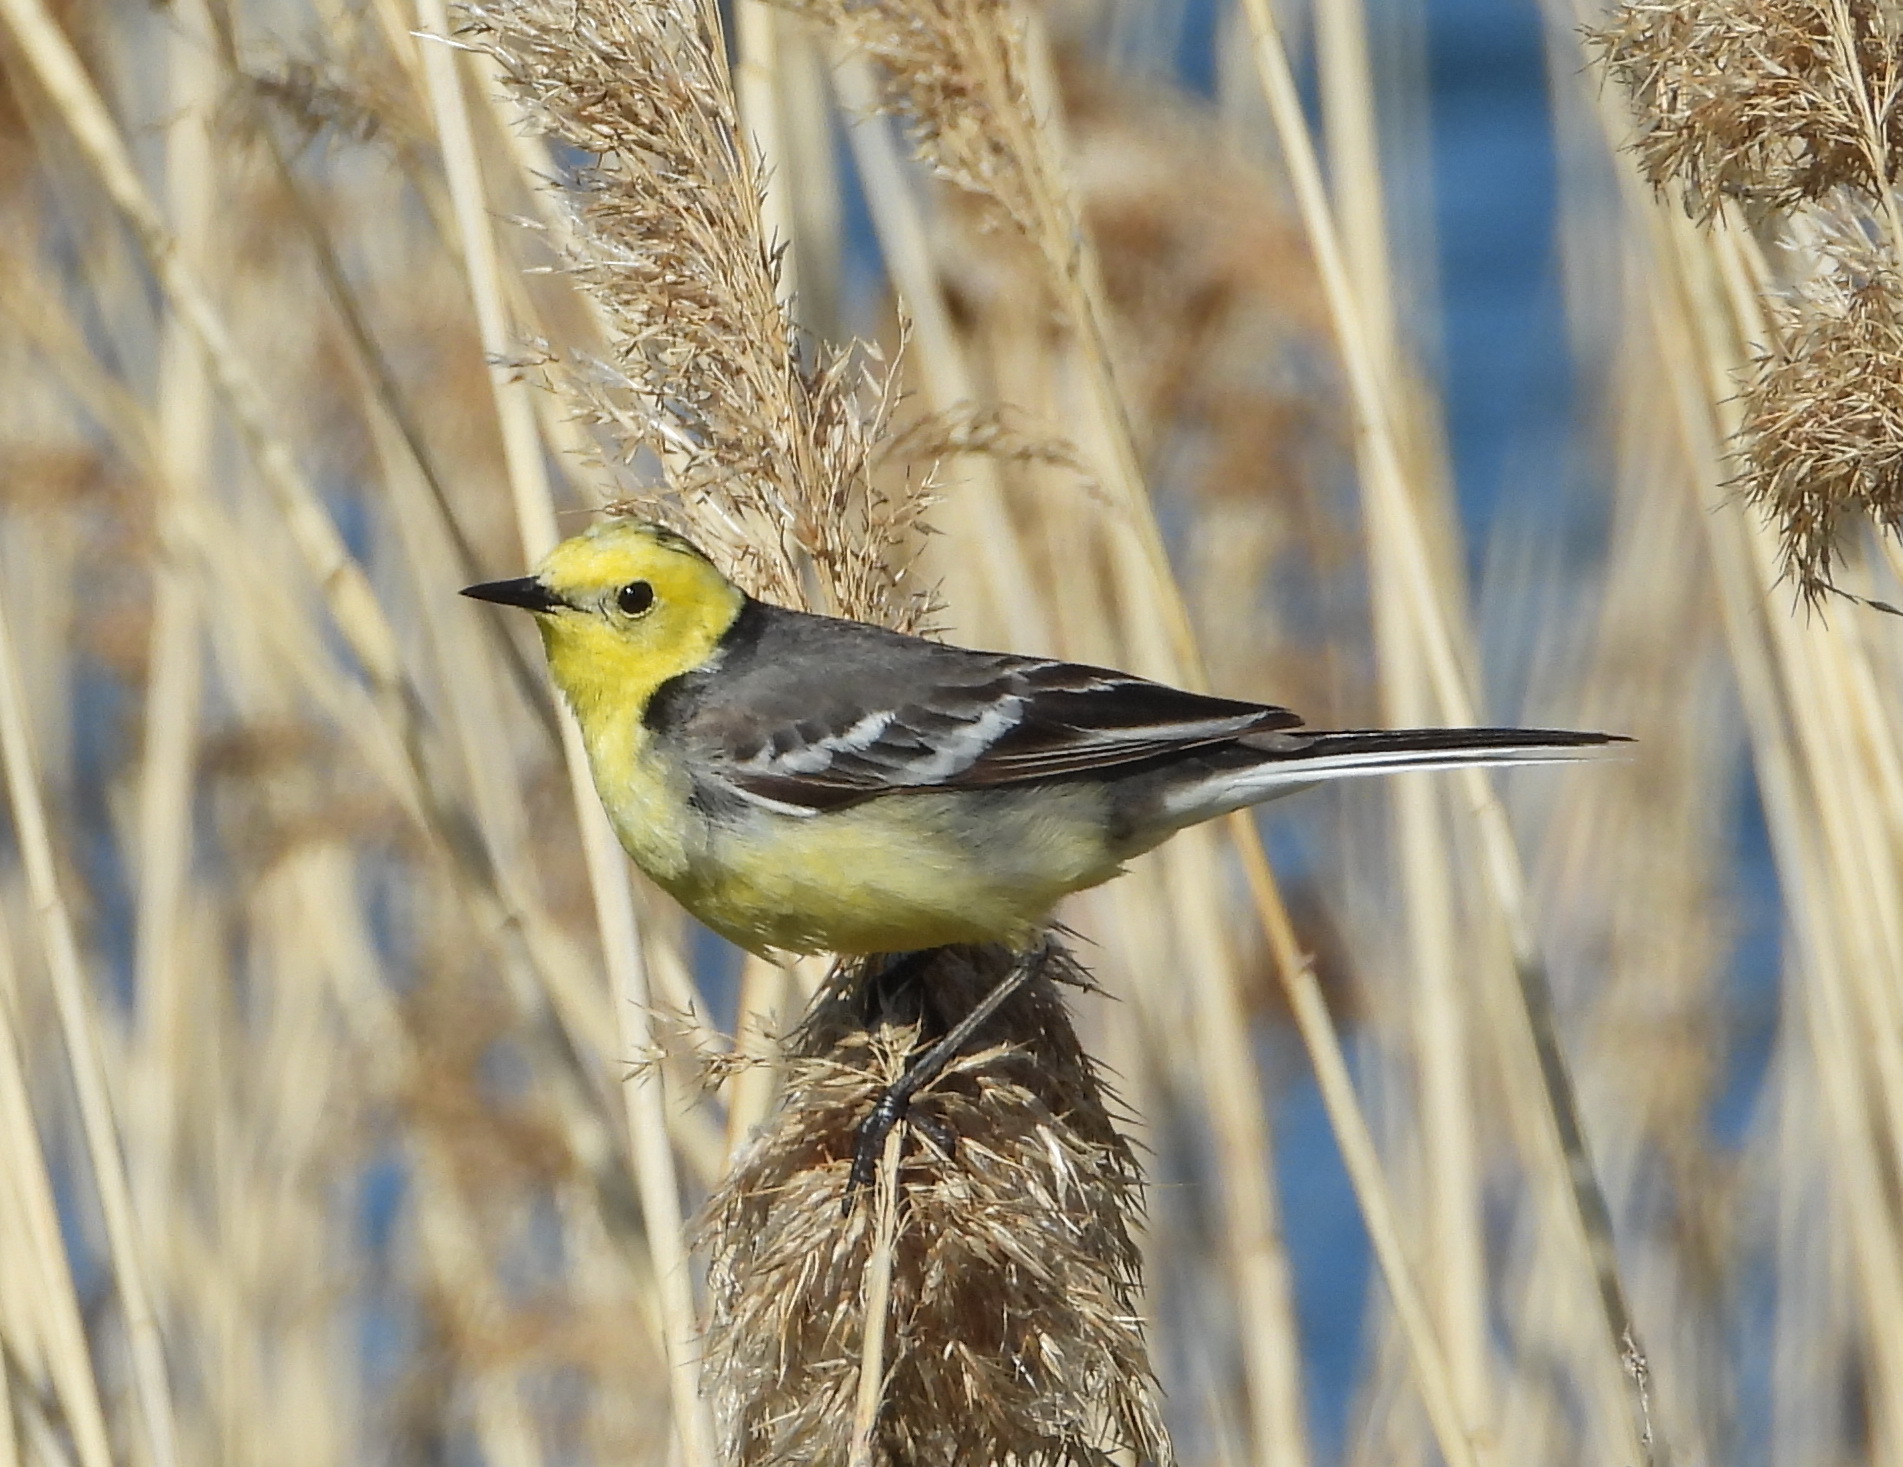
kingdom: Animalia
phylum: Chordata
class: Aves
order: Passeriformes
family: Motacillidae
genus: Motacilla
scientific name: Motacilla citreola
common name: Citrine wagtail
